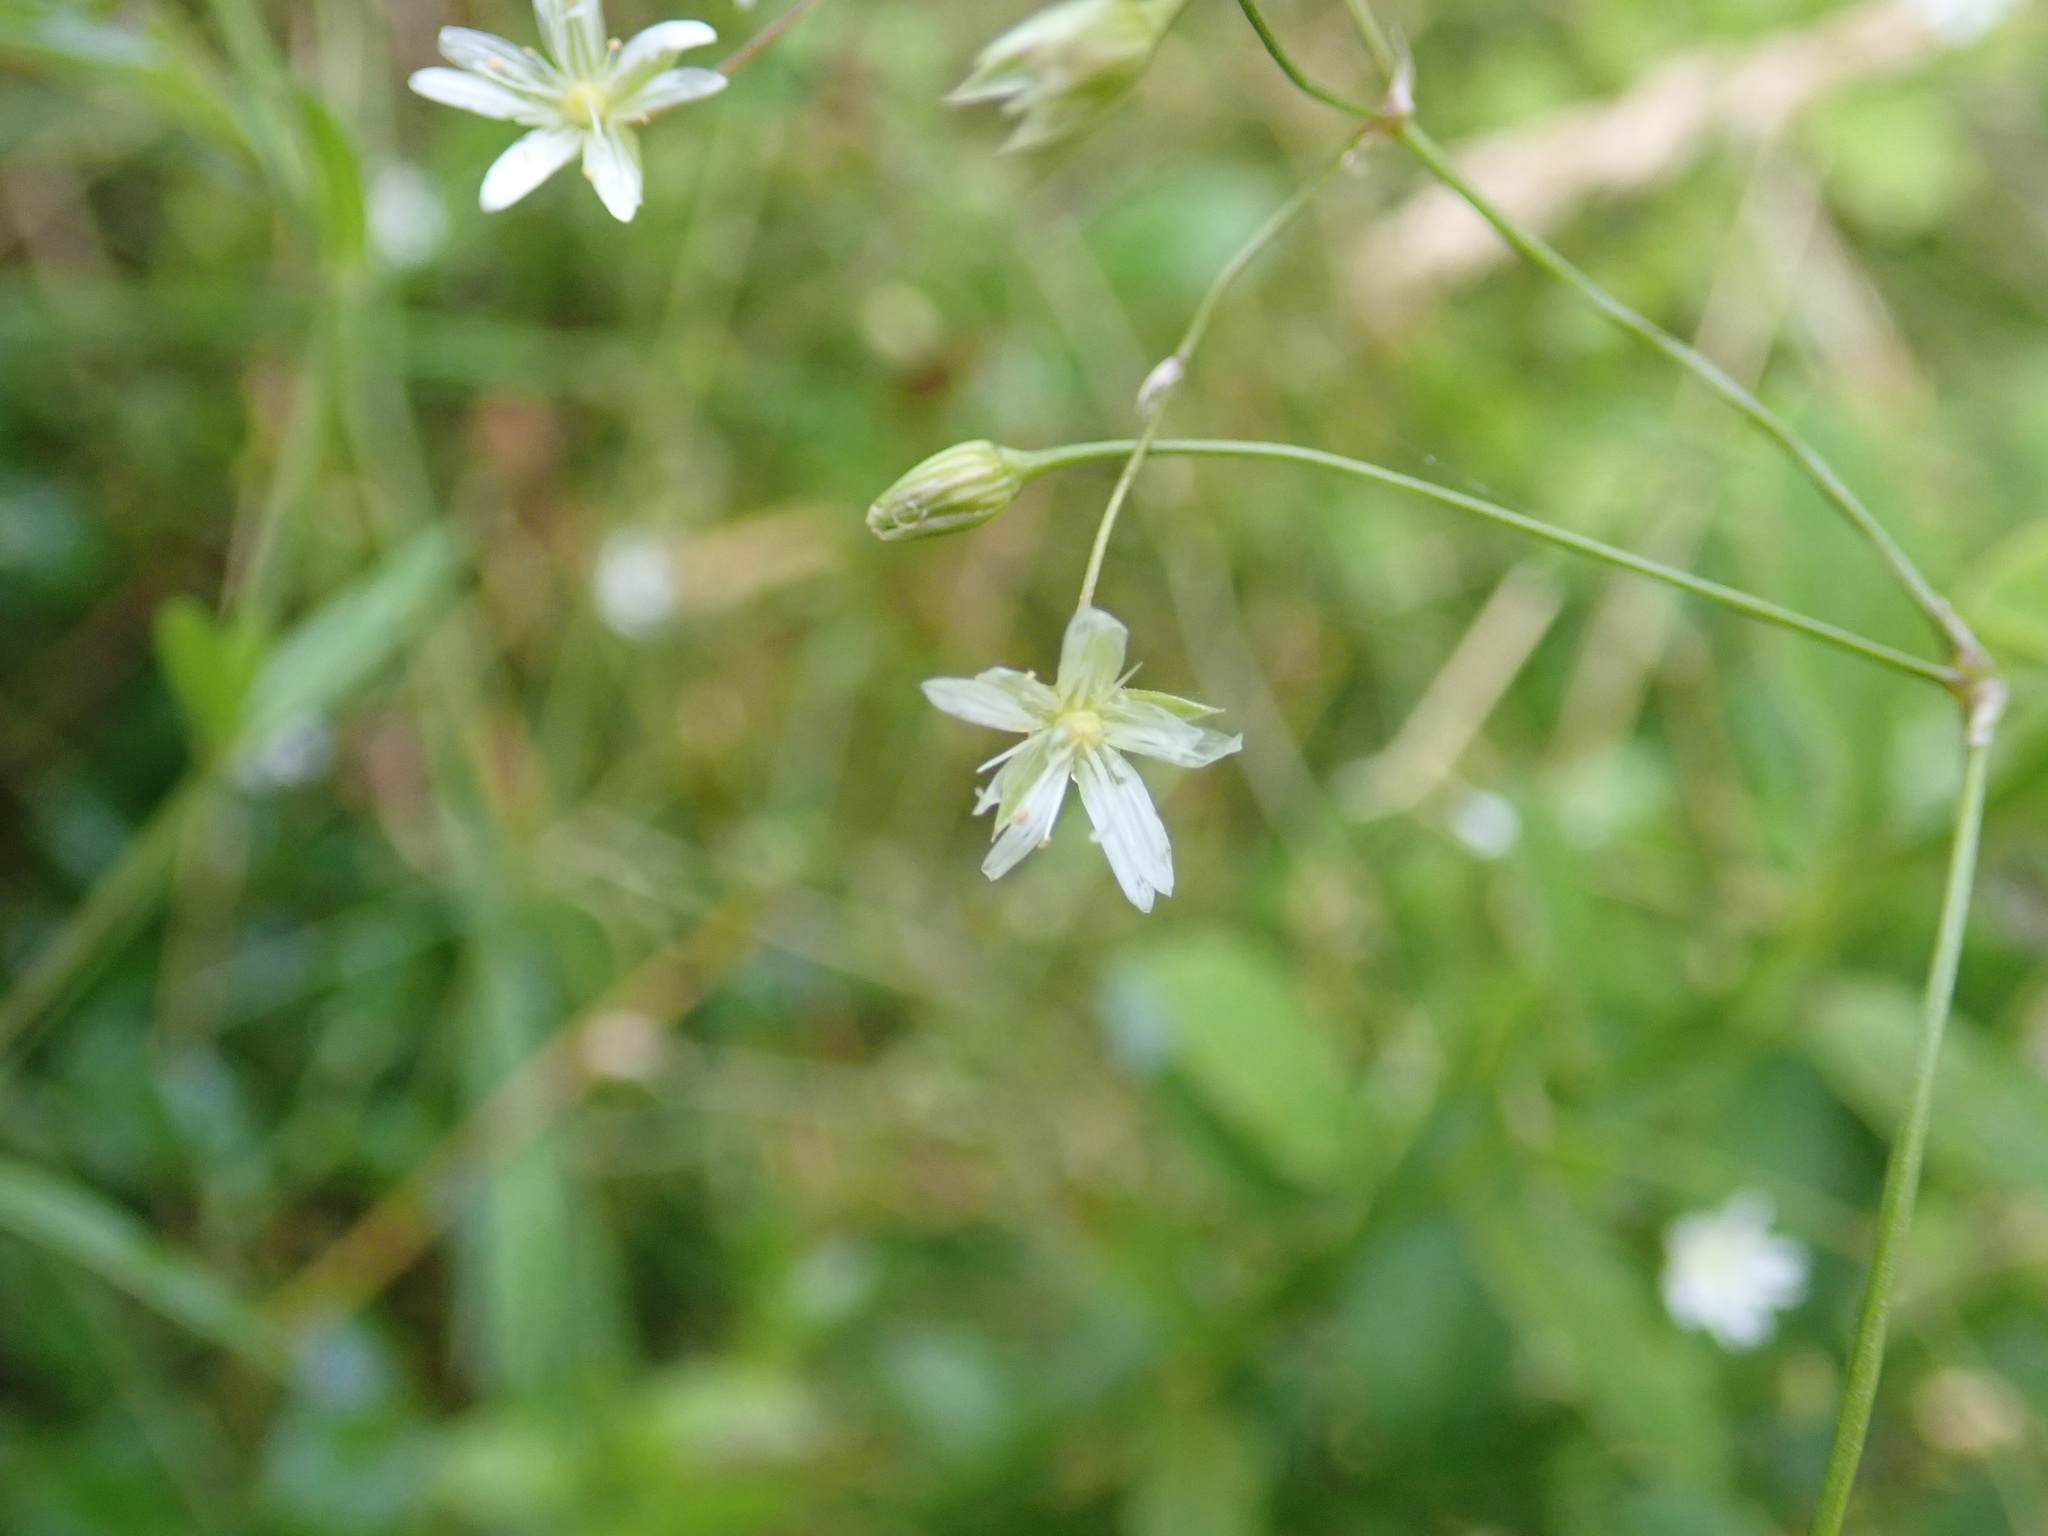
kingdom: Plantae
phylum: Tracheophyta
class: Magnoliopsida
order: Caryophyllales
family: Caryophyllaceae
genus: Stellaria
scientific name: Stellaria graminea
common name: Grass-like starwort
